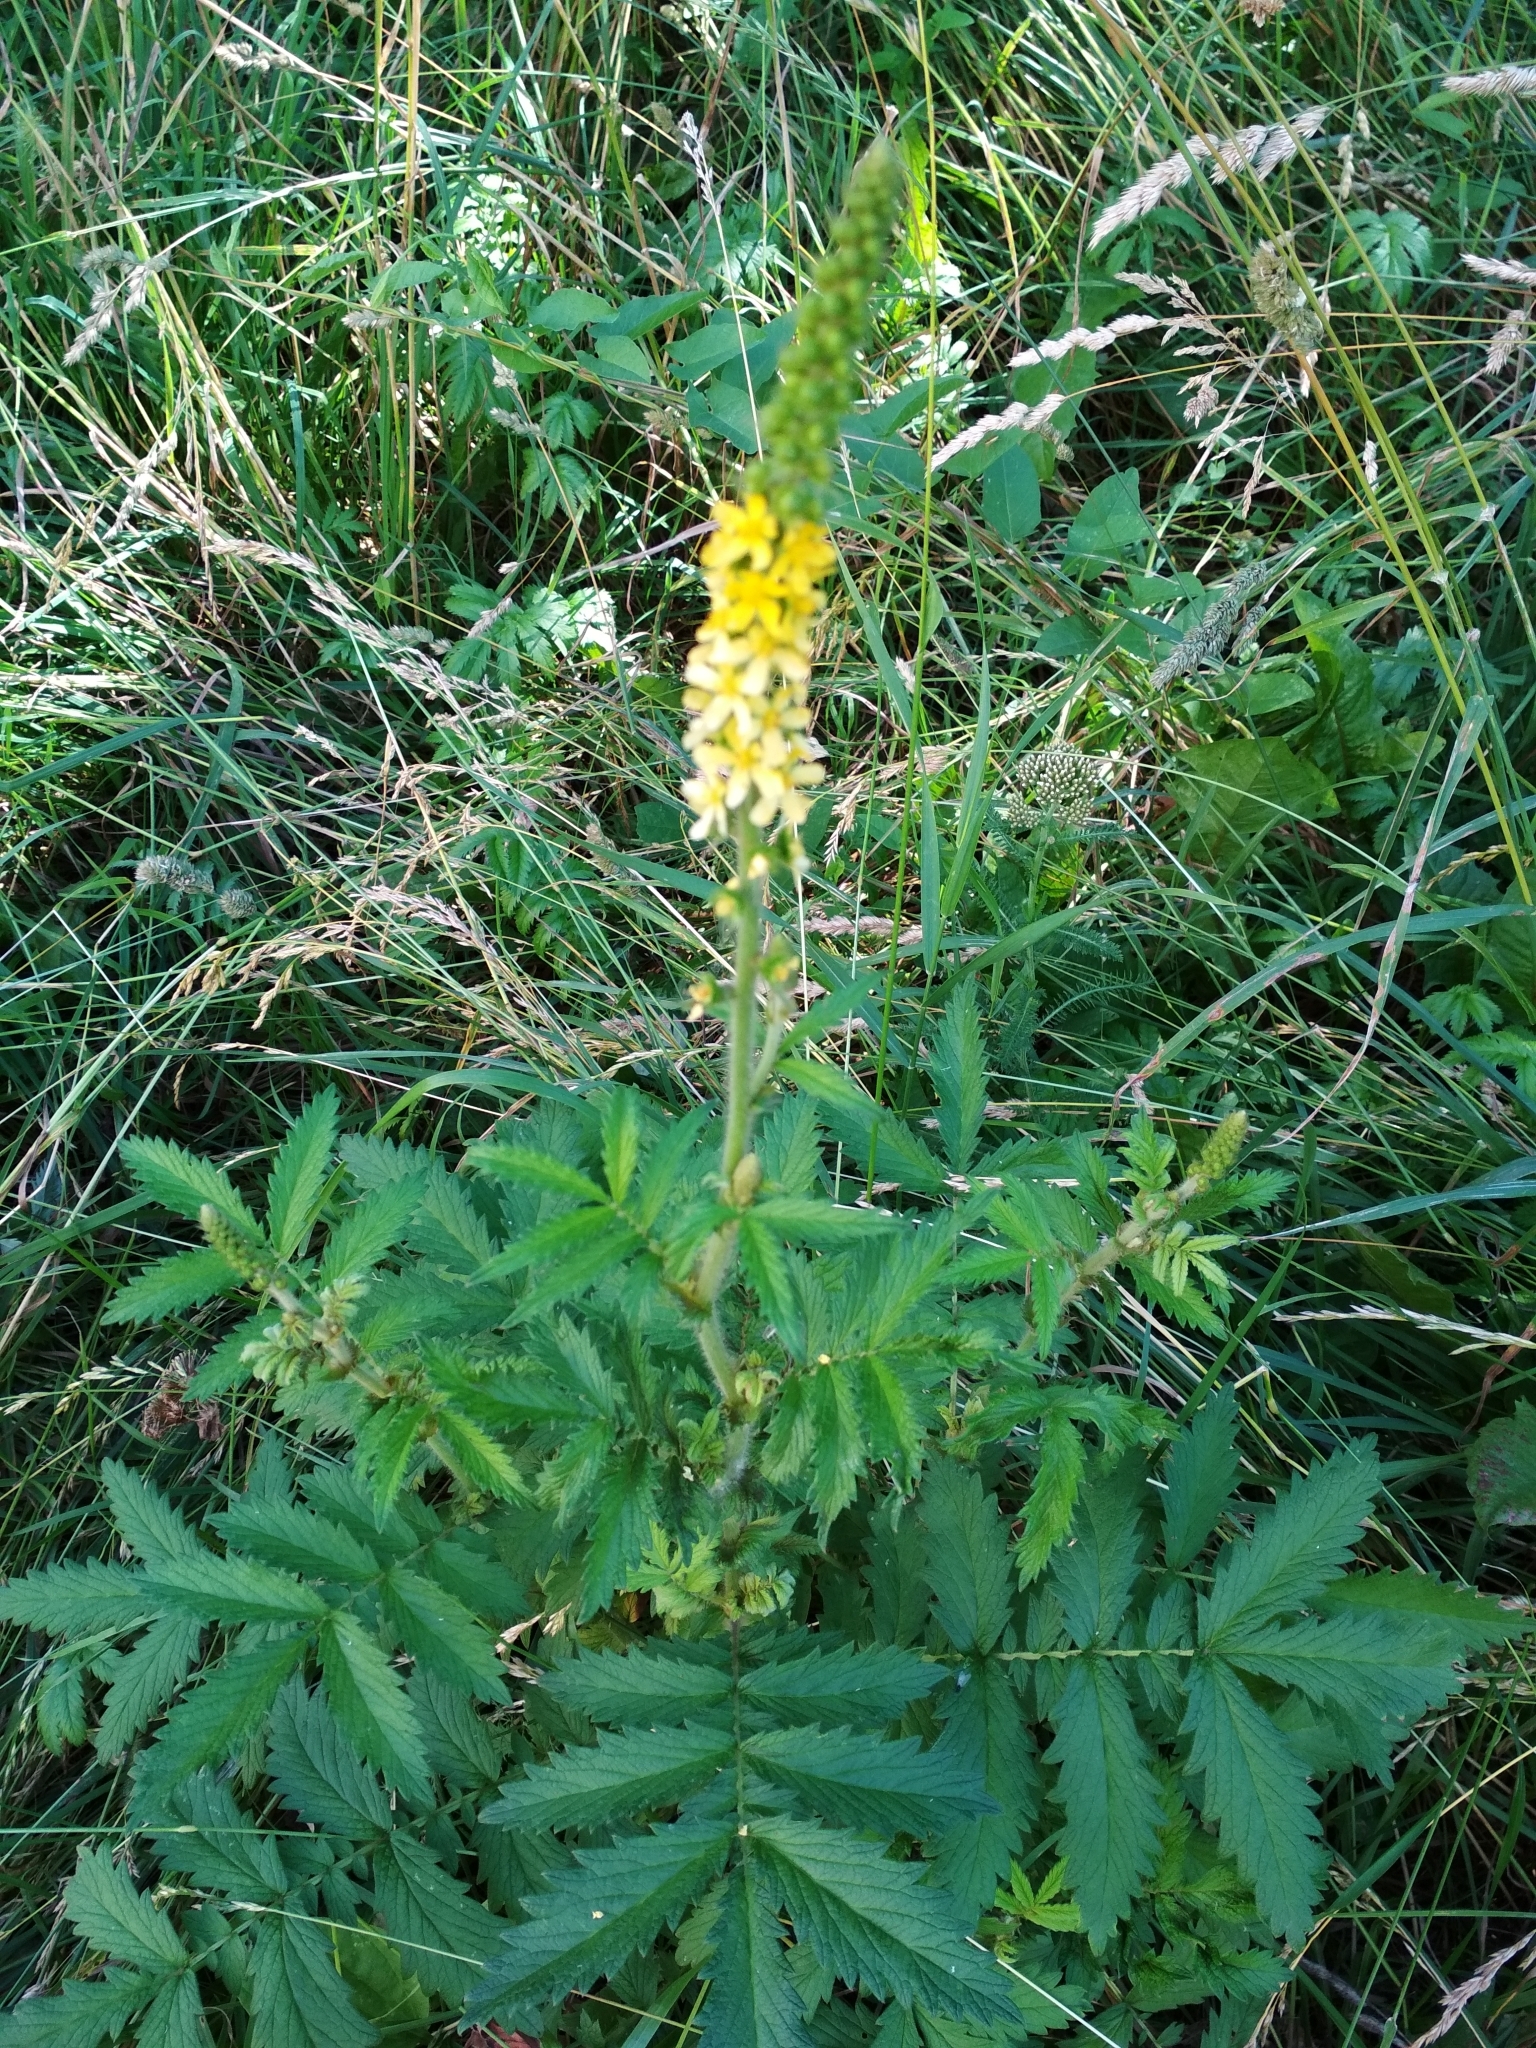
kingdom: Plantae
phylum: Tracheophyta
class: Magnoliopsida
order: Rosales
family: Rosaceae
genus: Agrimonia
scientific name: Agrimonia eupatoria
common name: Agrimony
